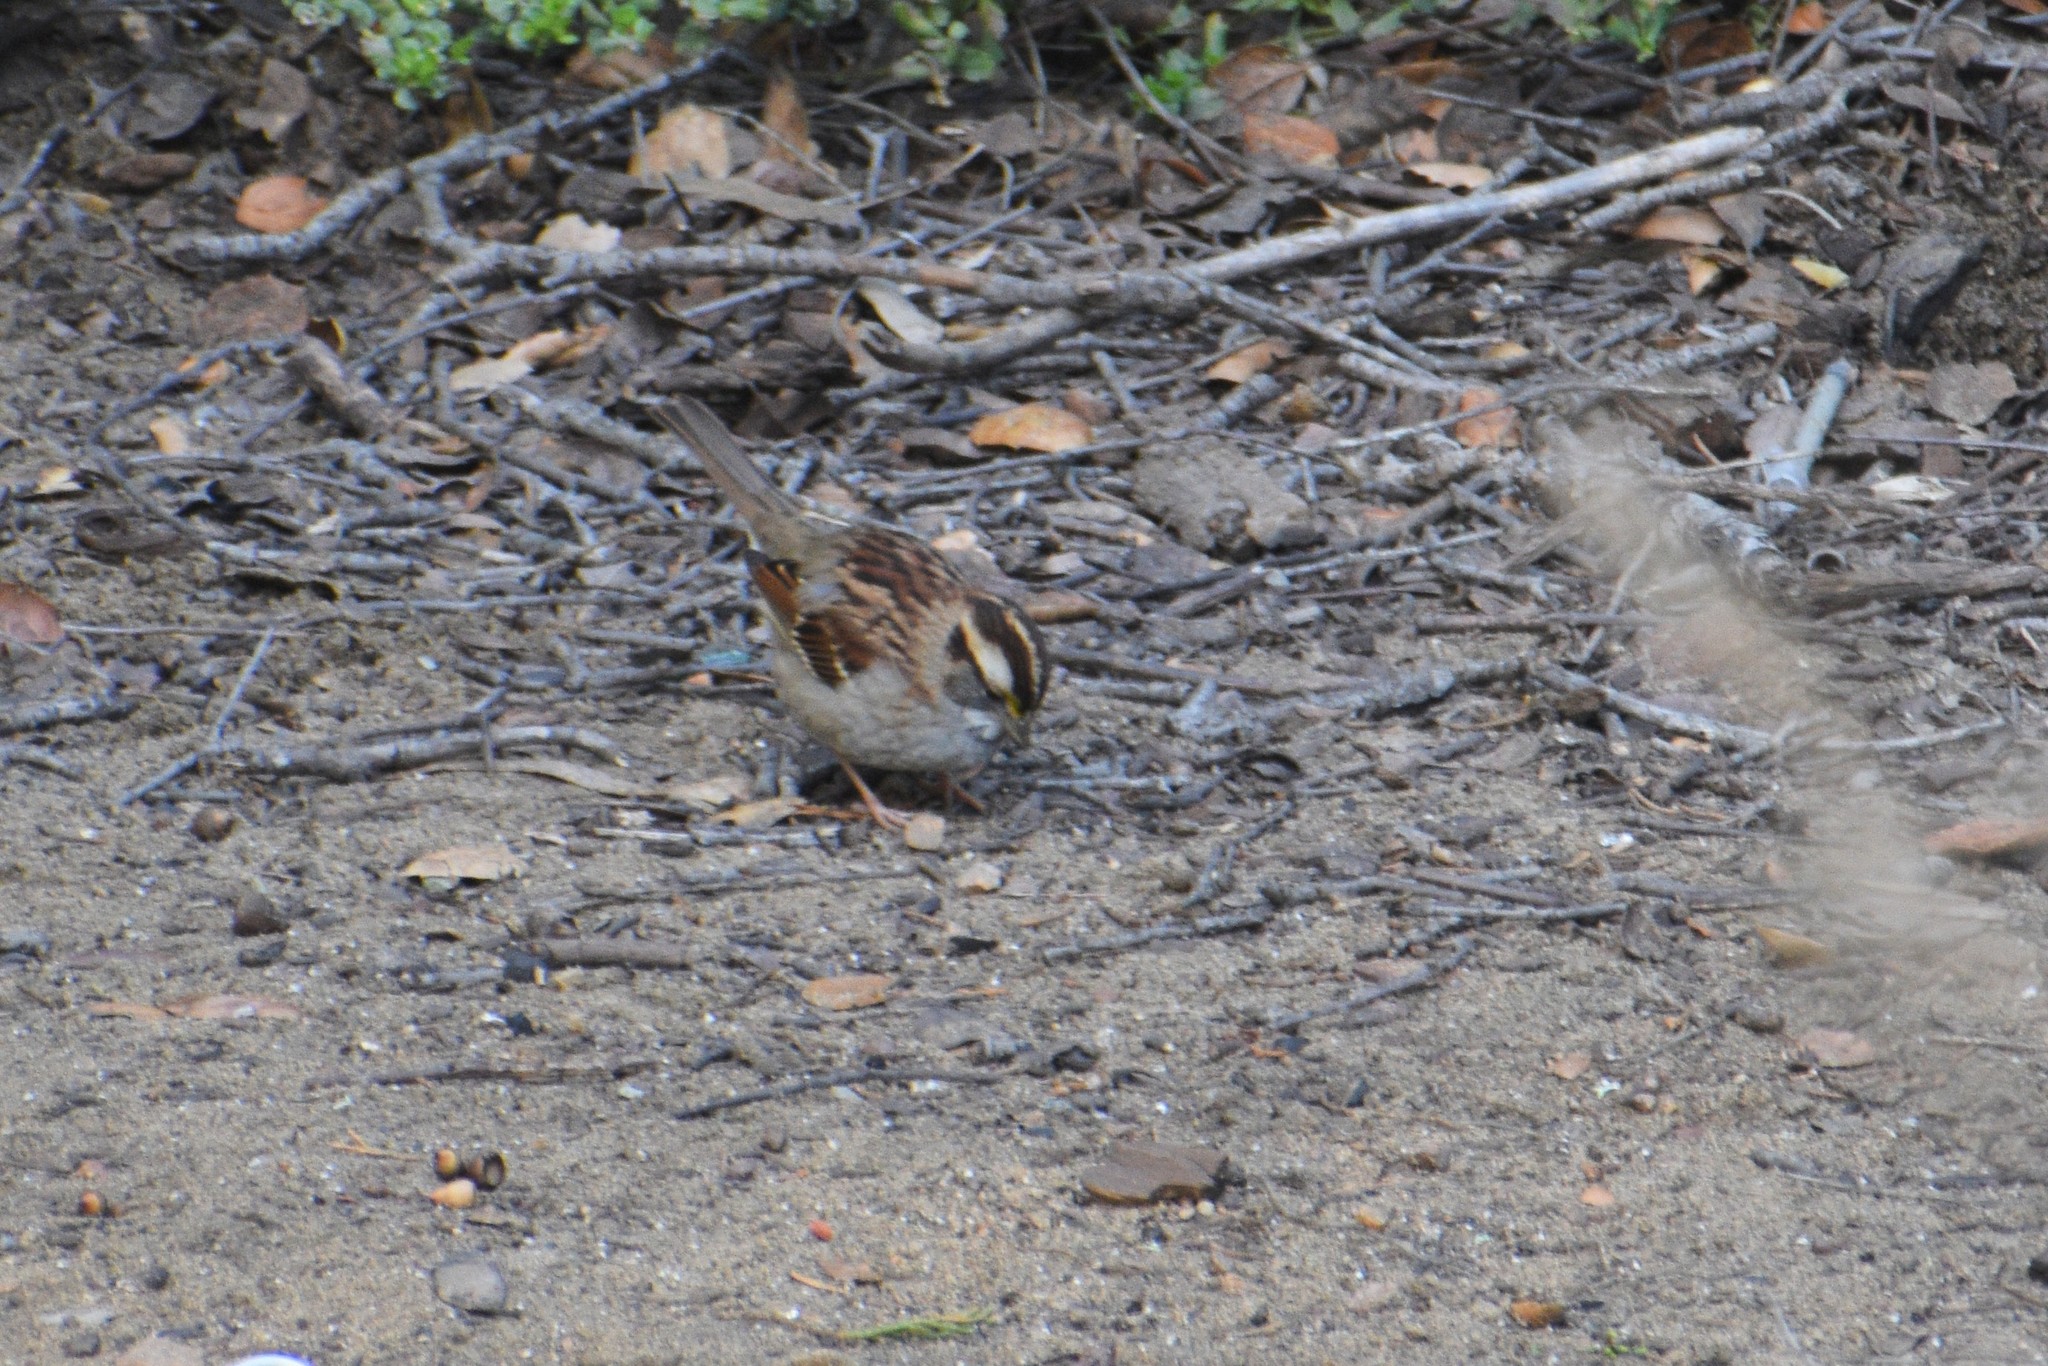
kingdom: Animalia
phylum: Chordata
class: Aves
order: Passeriformes
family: Passerellidae
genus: Zonotrichia
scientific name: Zonotrichia albicollis
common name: White-throated sparrow
